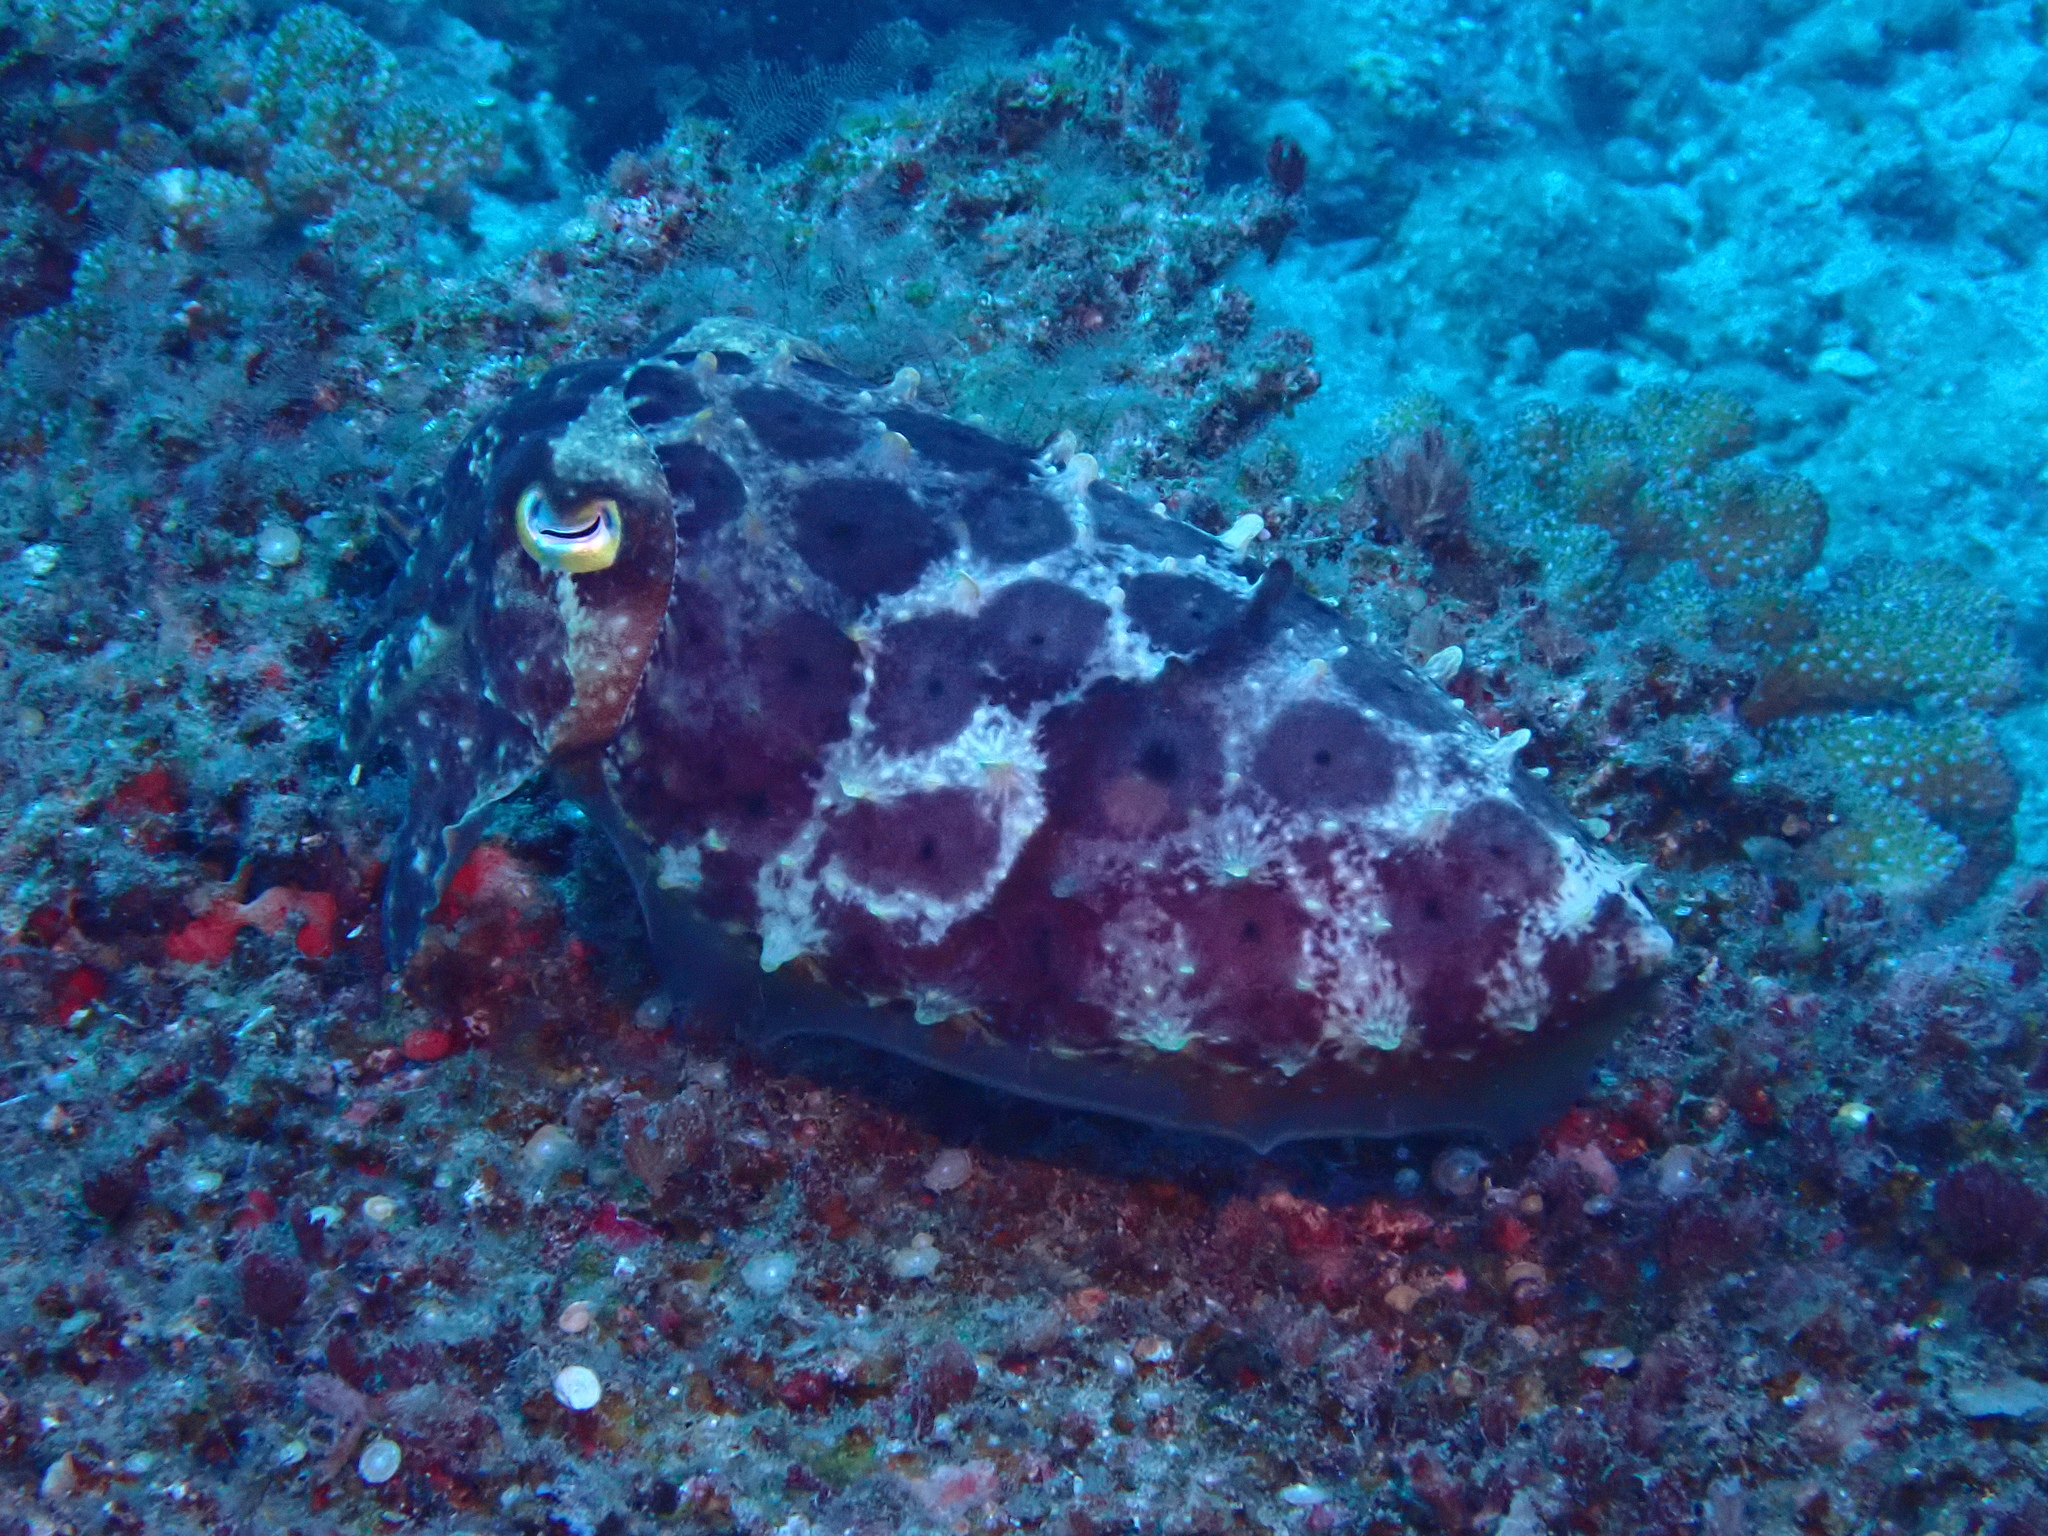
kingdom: Animalia
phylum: Mollusca
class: Cephalopoda
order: Sepiida
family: Sepiidae
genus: Ascarosepion
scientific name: Ascarosepion latimanus
